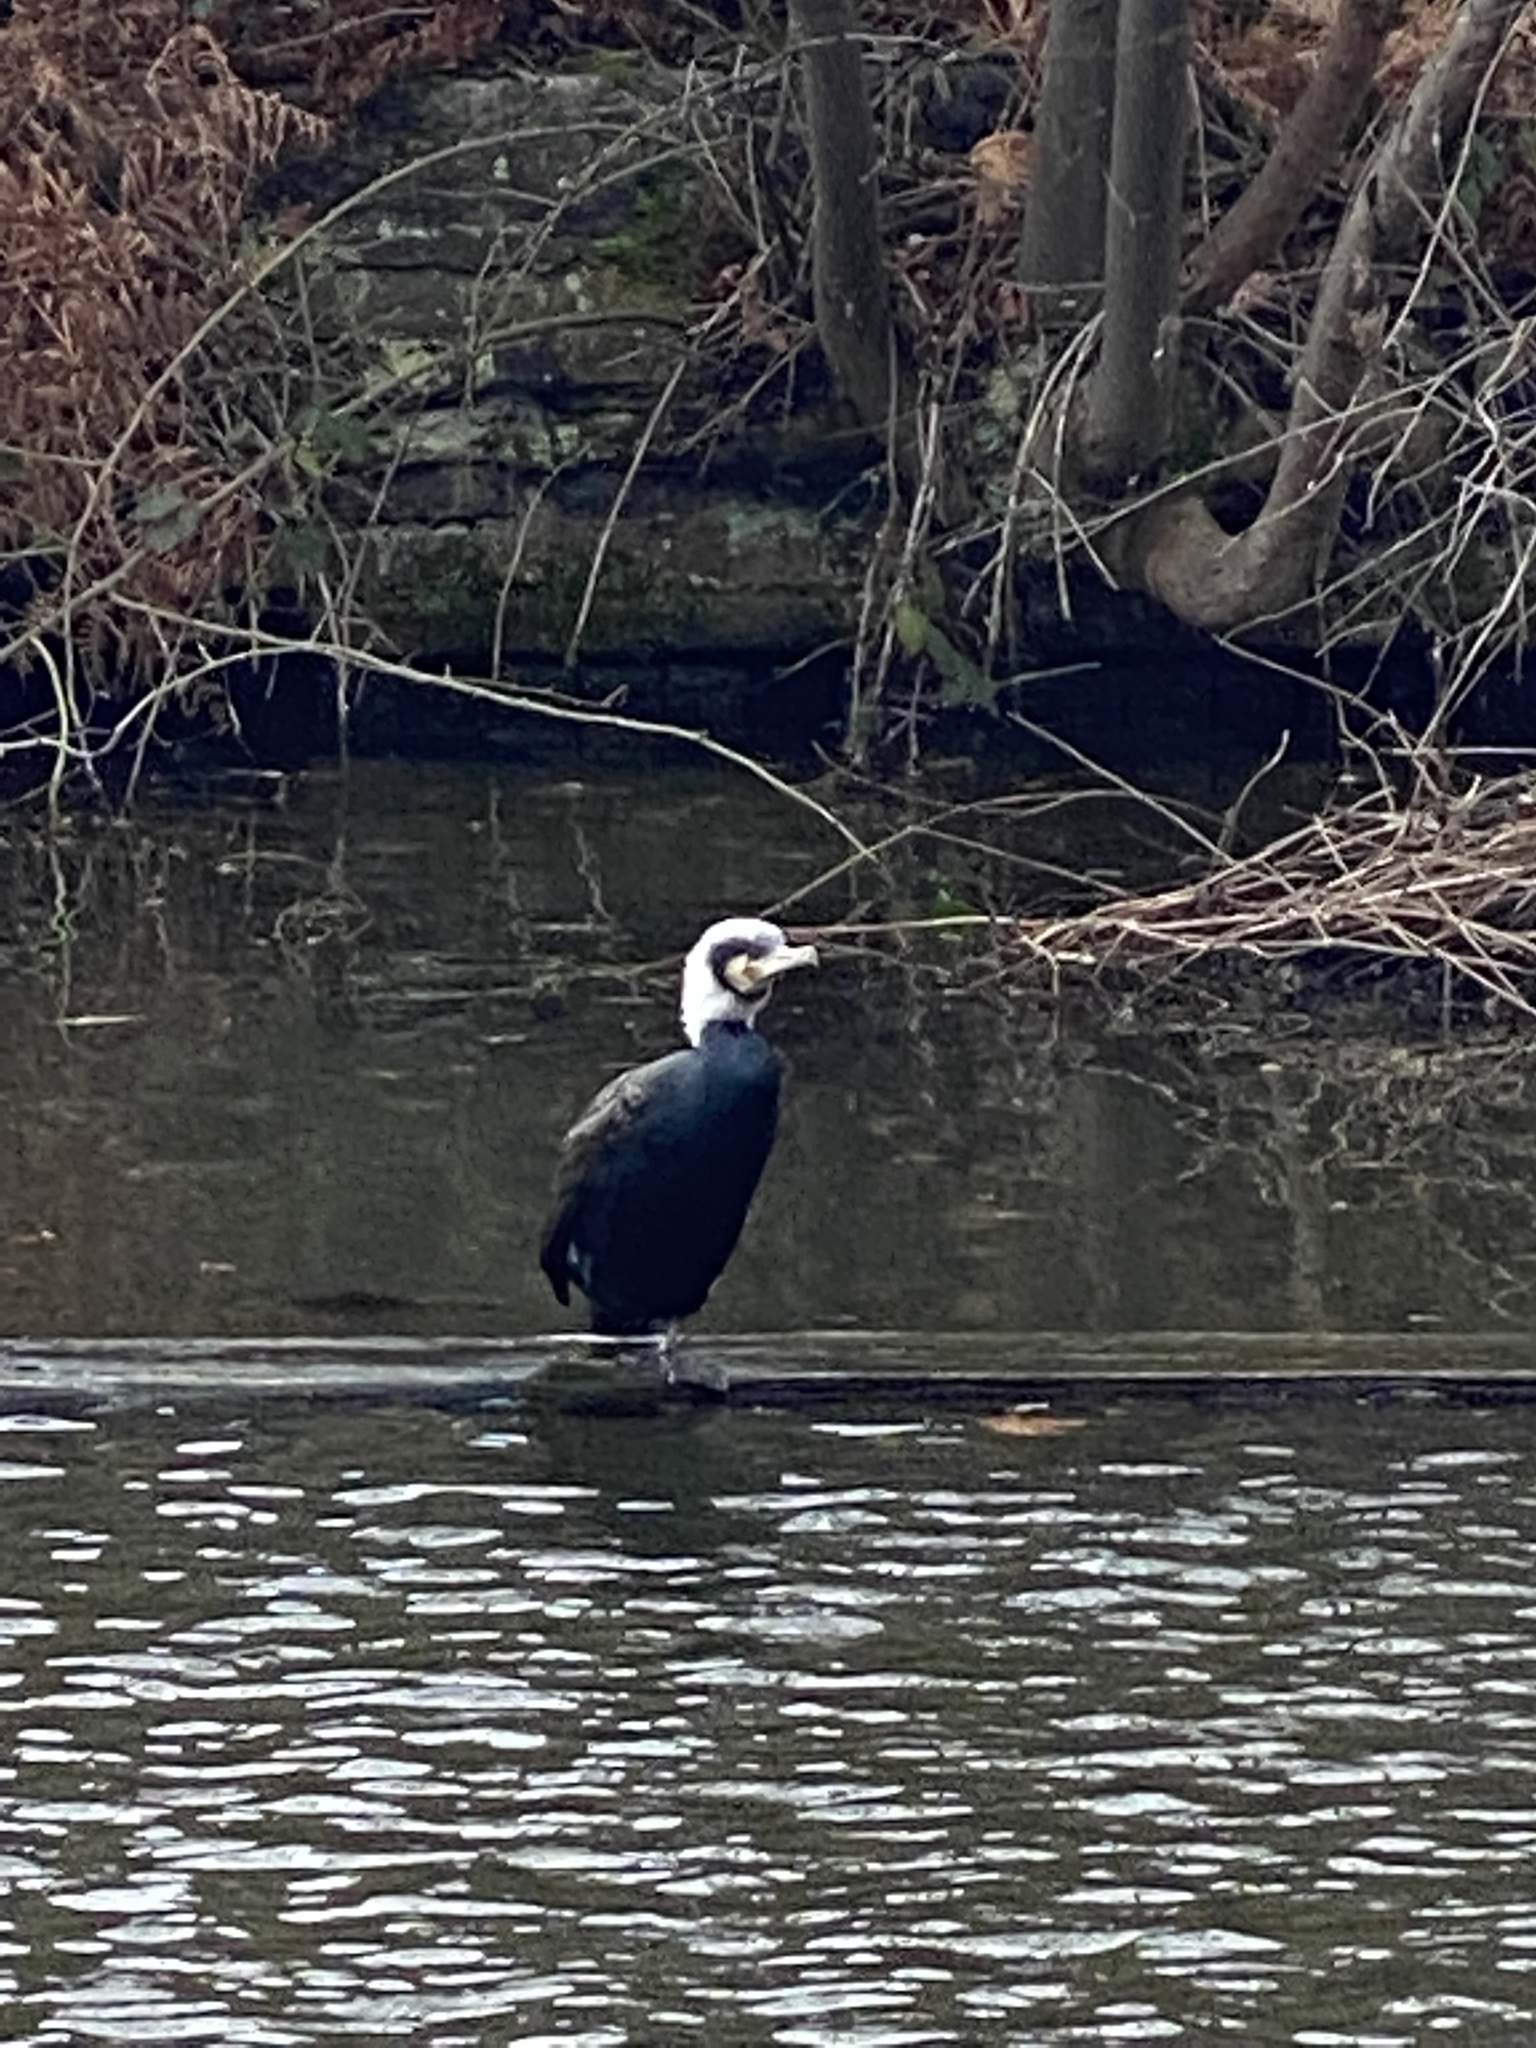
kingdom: Animalia
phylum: Chordata
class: Aves
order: Suliformes
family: Phalacrocoracidae
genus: Phalacrocorax
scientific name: Phalacrocorax carbo
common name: Great cormorant
